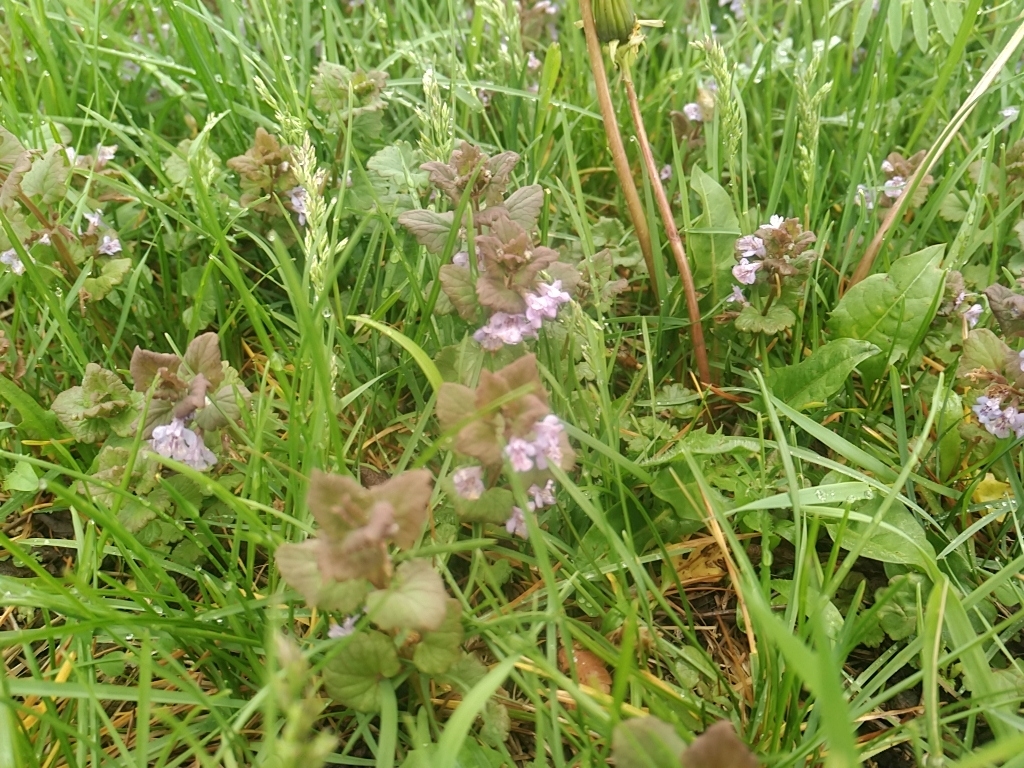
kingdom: Plantae
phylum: Tracheophyta
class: Magnoliopsida
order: Lamiales
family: Lamiaceae
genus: Glechoma
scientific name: Glechoma hederacea
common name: Ground ivy
